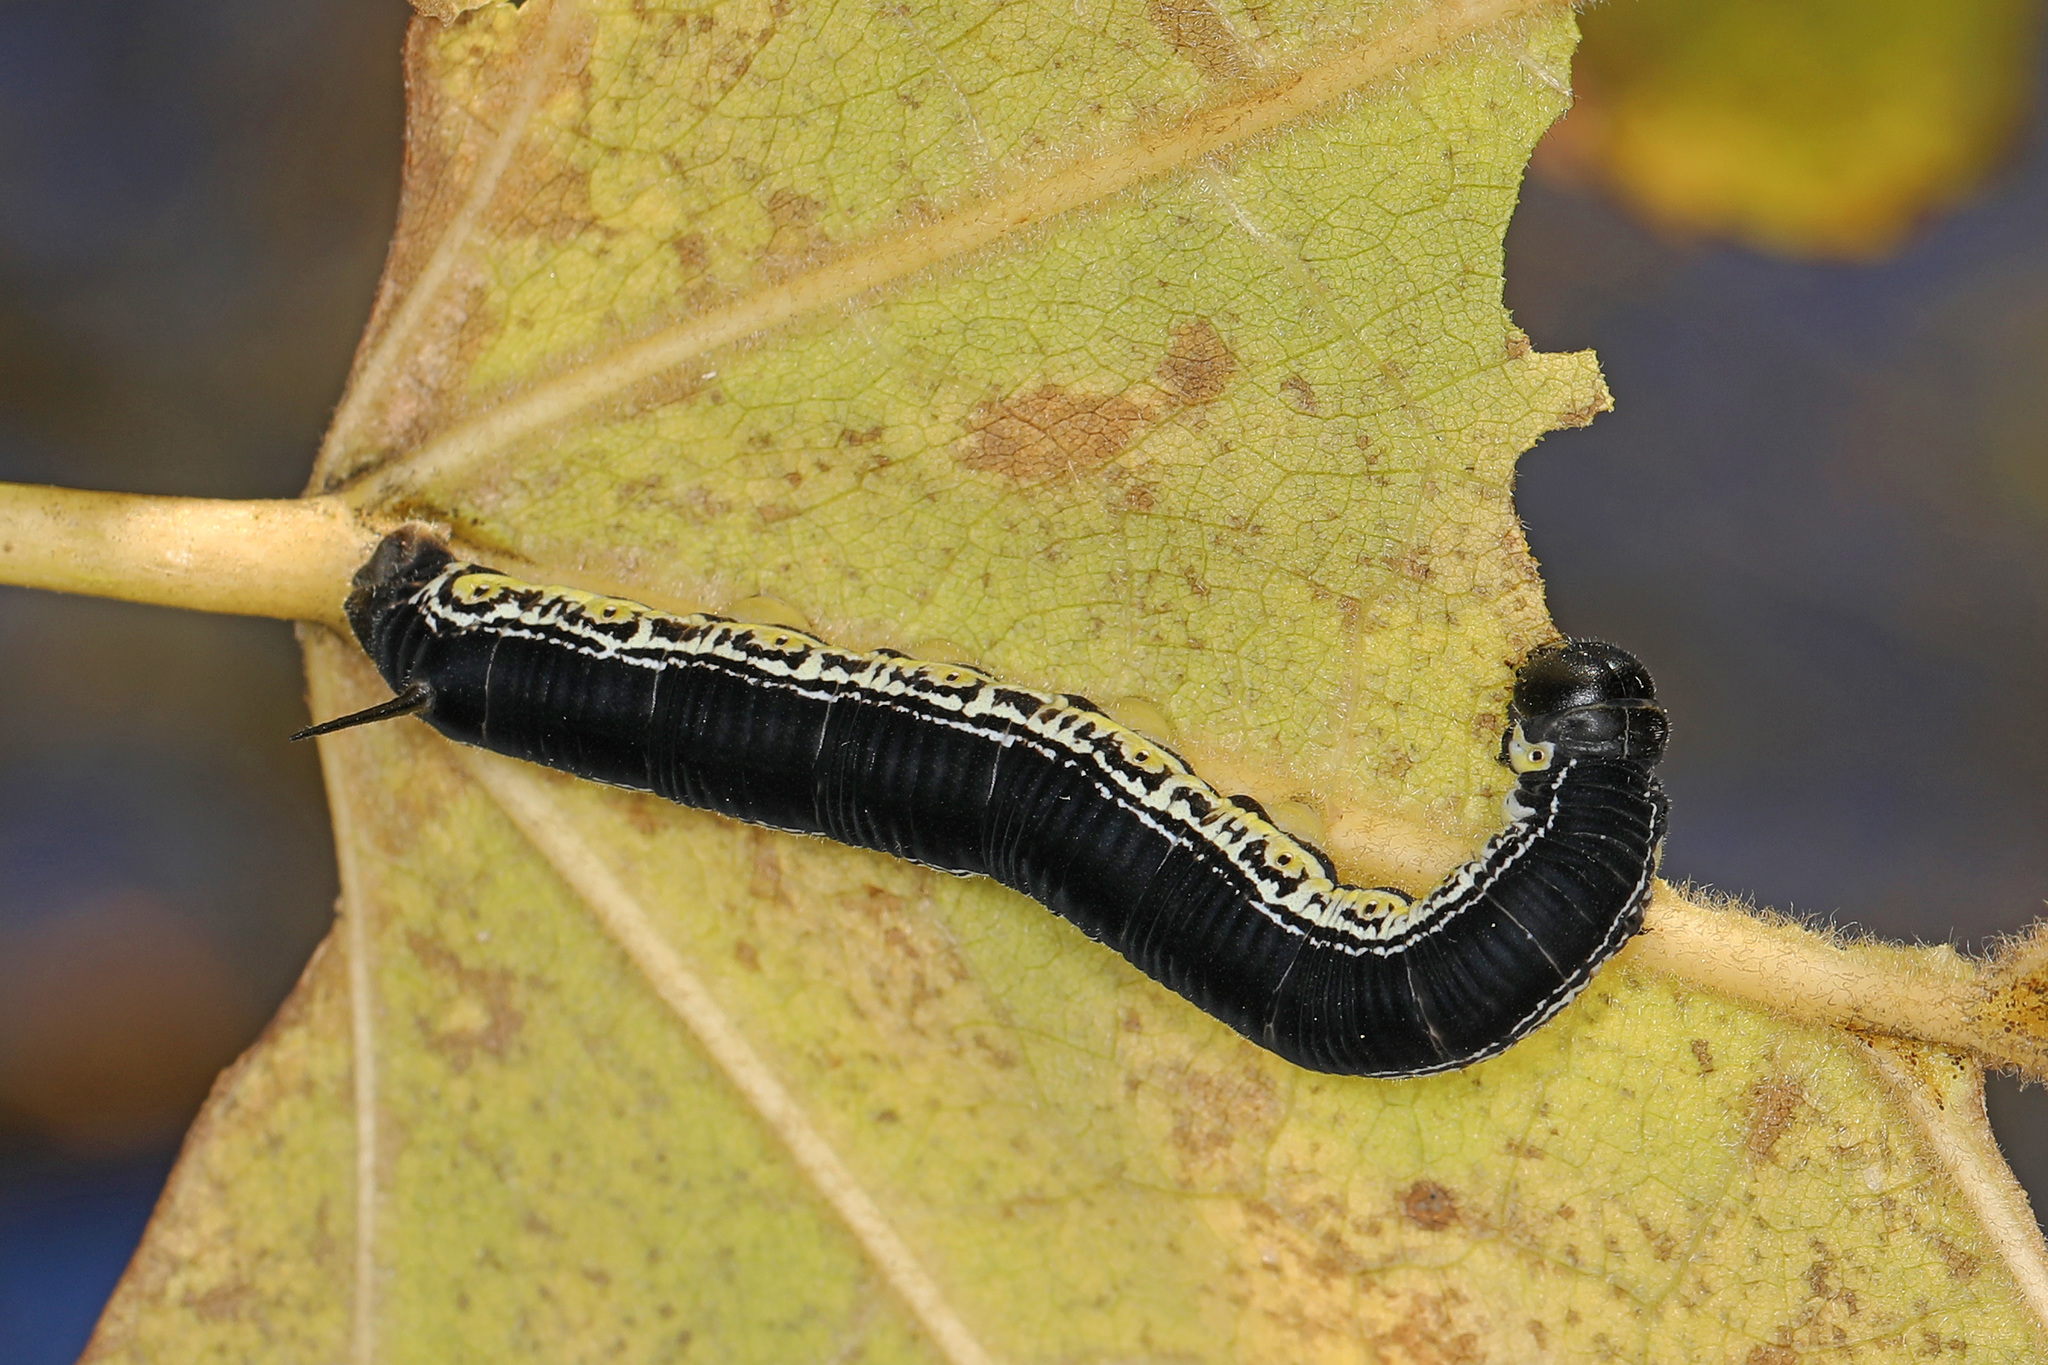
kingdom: Animalia
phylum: Arthropoda
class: Insecta
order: Lepidoptera
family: Sphingidae
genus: Ceratomia
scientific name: Ceratomia catalpae
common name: Catalpa hornworm
